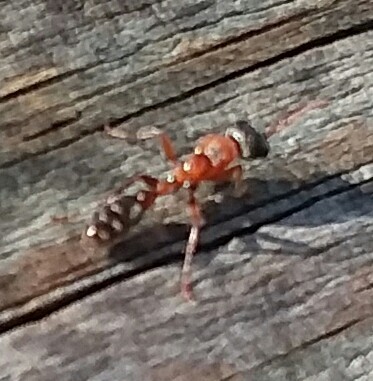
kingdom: Animalia
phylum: Arthropoda
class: Insecta
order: Hymenoptera
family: Formicidae
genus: Pseudomyrmex
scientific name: Pseudomyrmex gracilis
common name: Graceful twig ant
